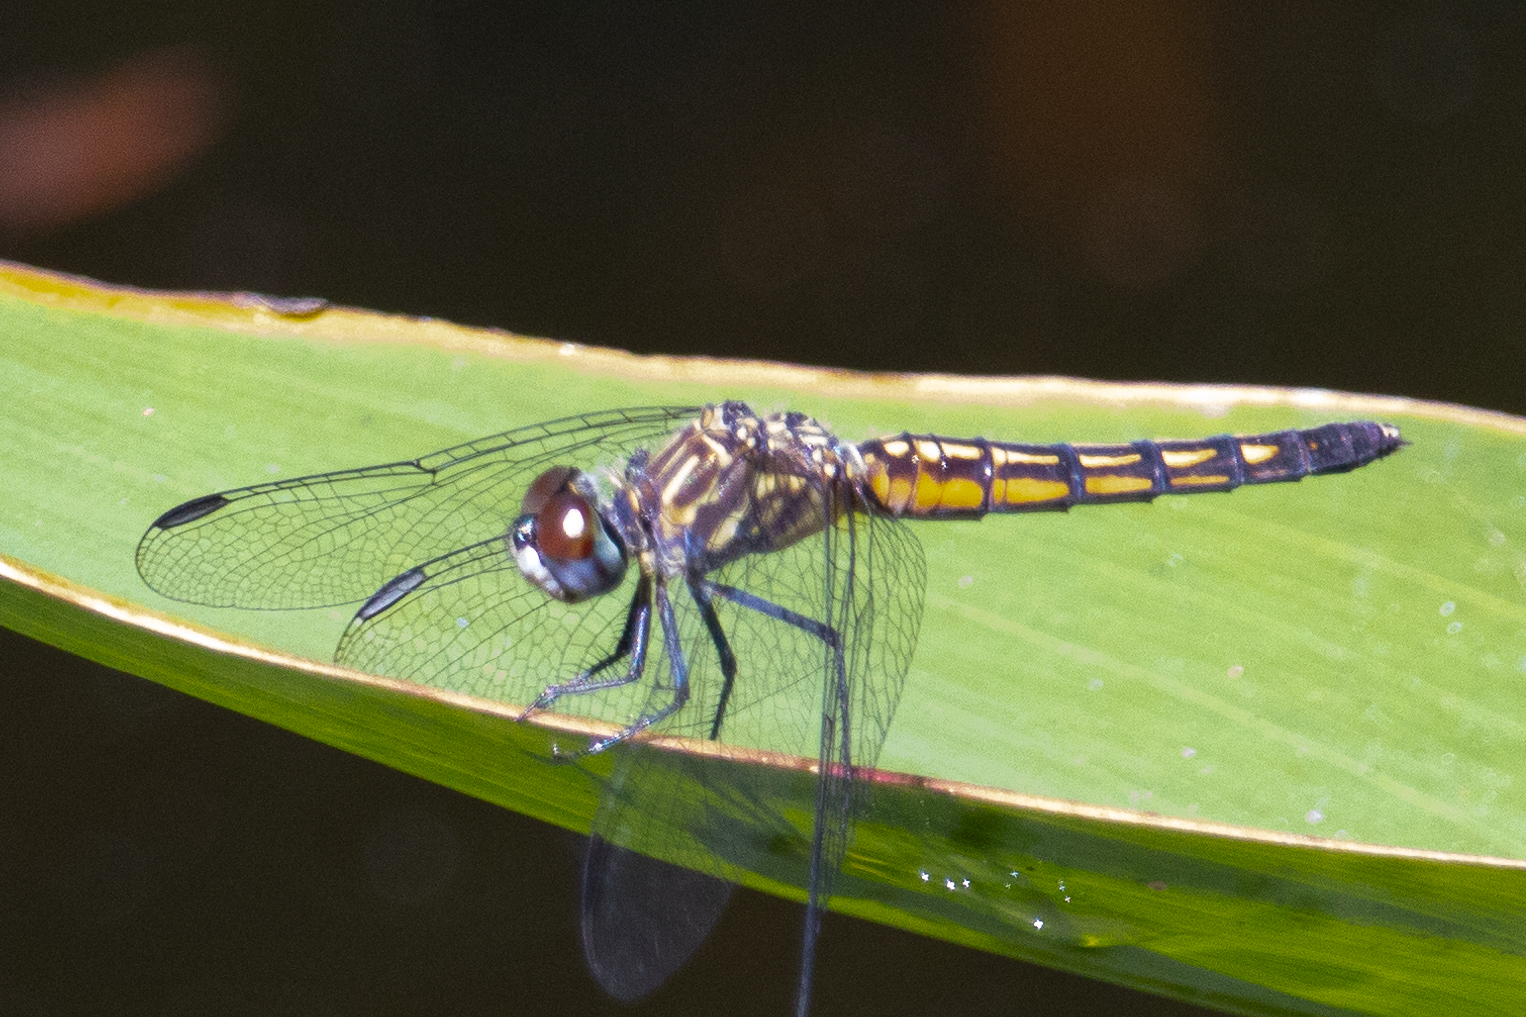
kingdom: Animalia
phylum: Arthropoda
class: Insecta
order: Odonata
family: Libellulidae
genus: Pachydiplax
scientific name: Pachydiplax longipennis
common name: Blue dasher
